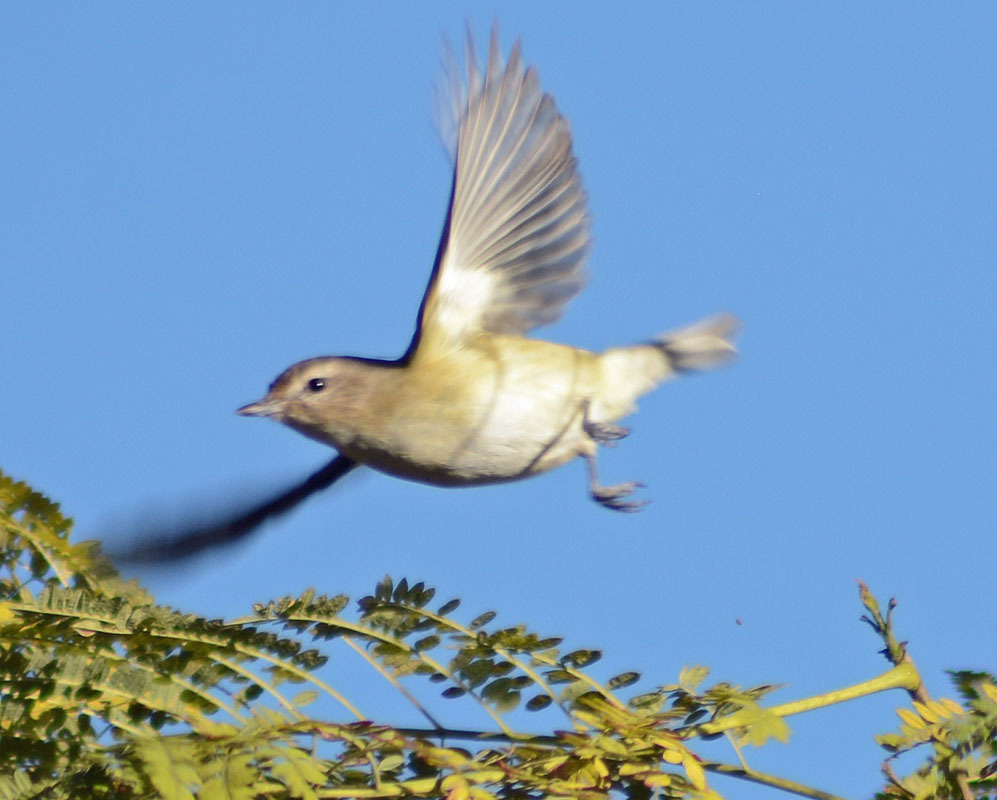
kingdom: Animalia
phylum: Chordata
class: Aves
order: Passeriformes
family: Vireonidae
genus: Vireo
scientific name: Vireo gilvus
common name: Warbling vireo
